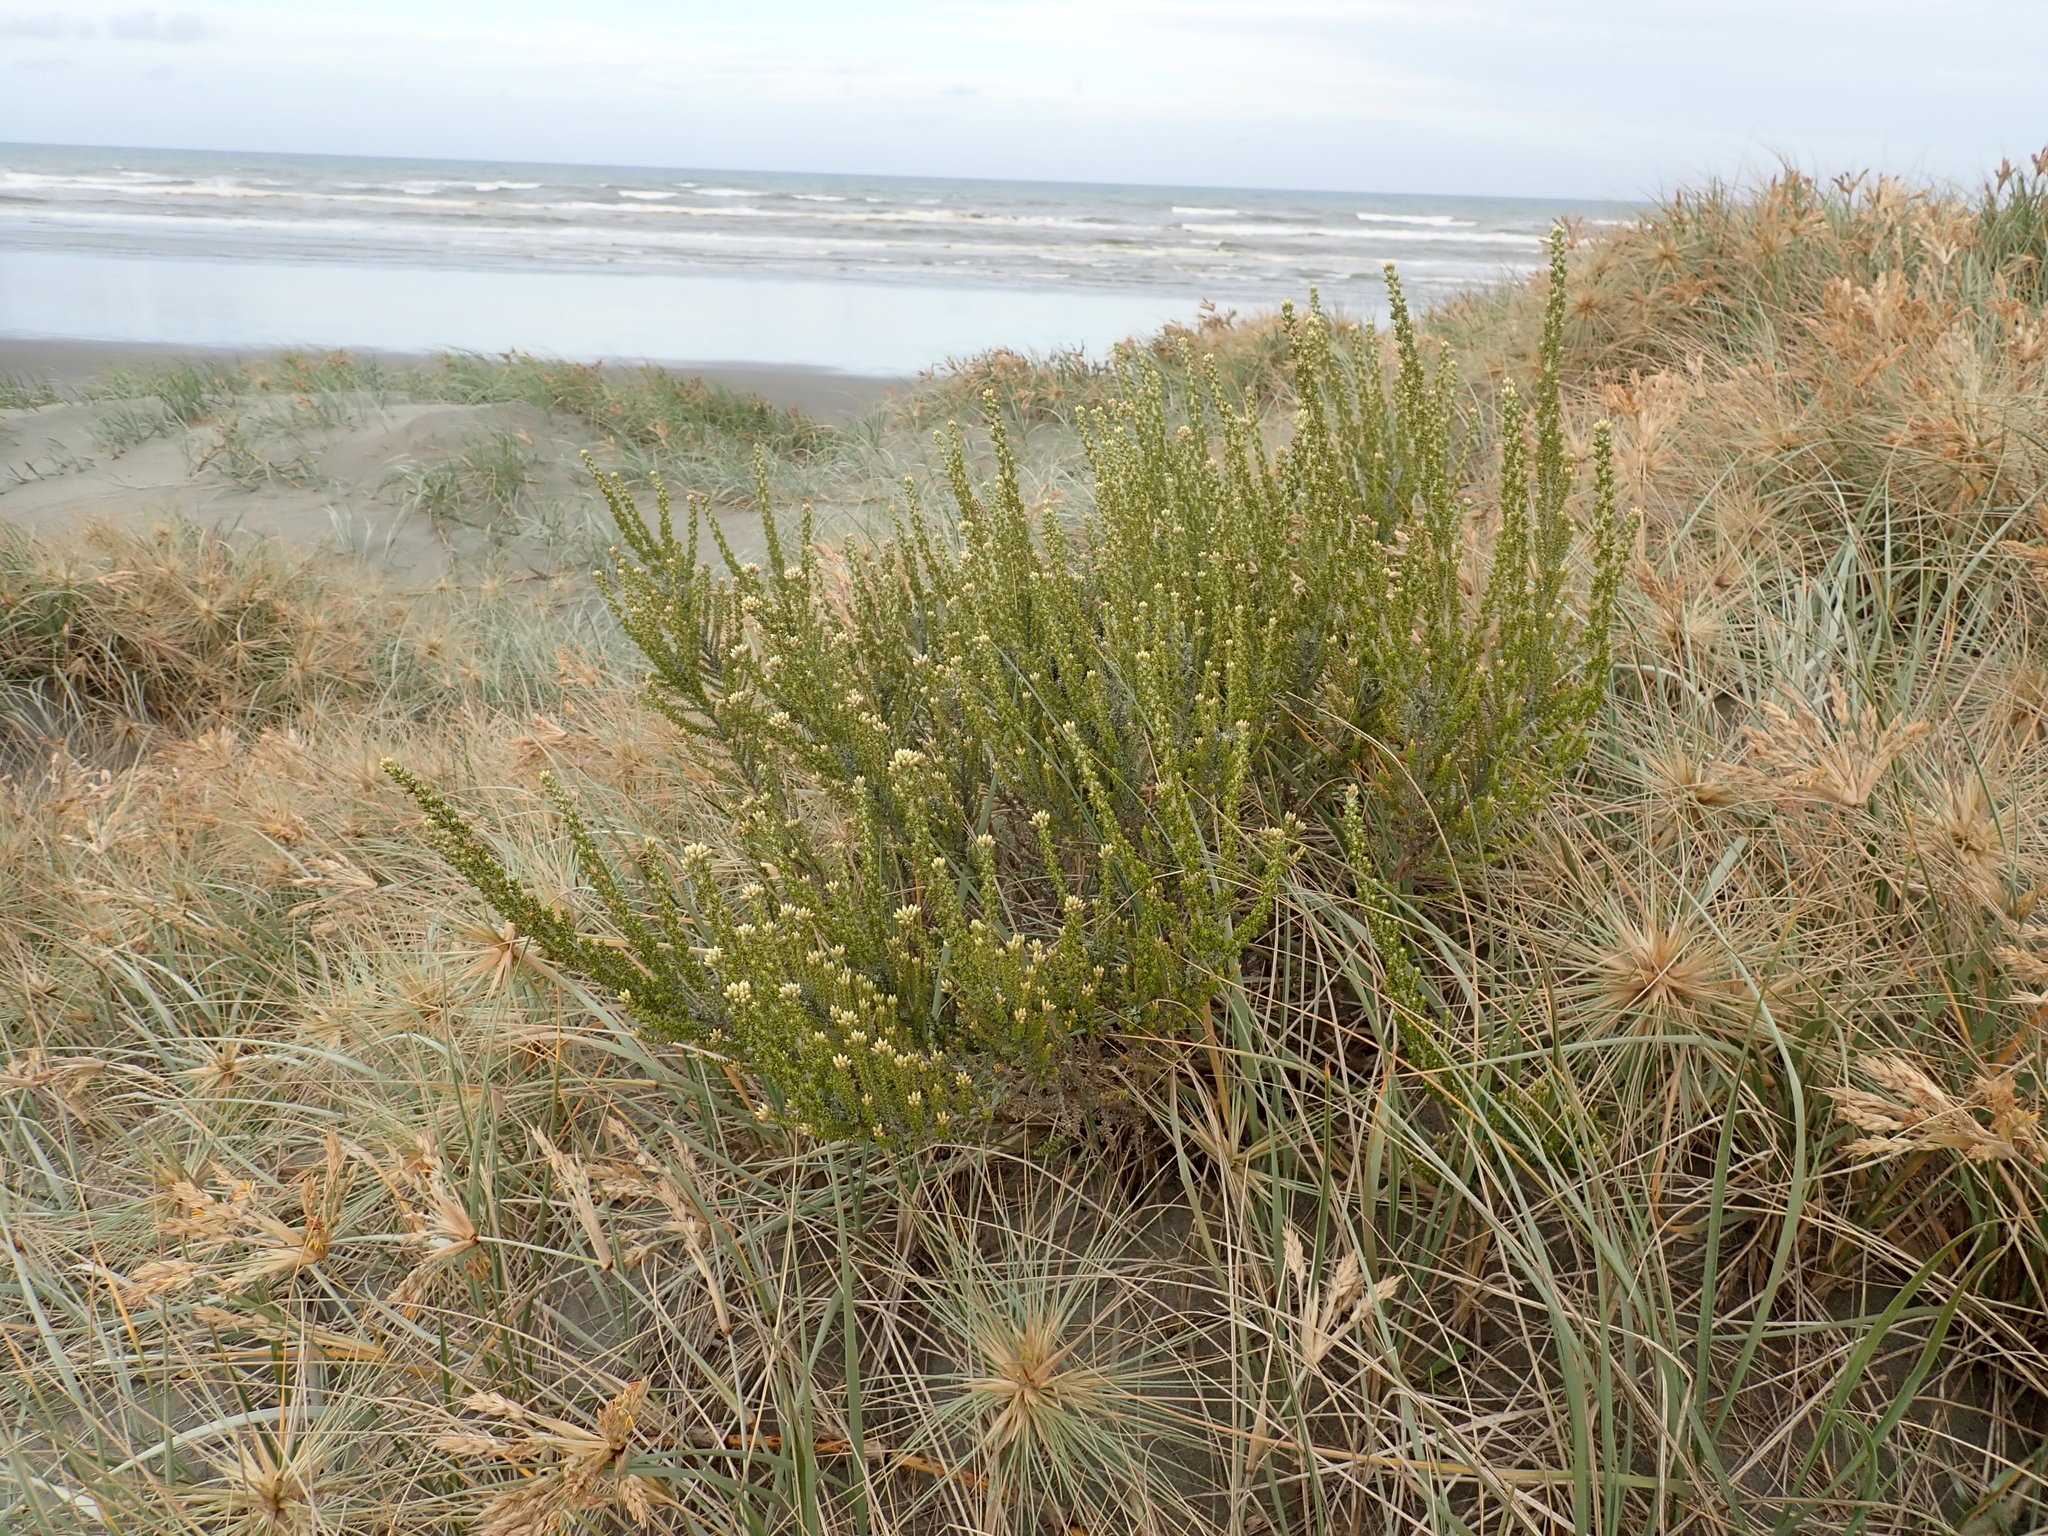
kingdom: Plantae
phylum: Tracheophyta
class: Magnoliopsida
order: Asterales
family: Asteraceae
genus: Ozothamnus
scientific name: Ozothamnus leptophyllus
